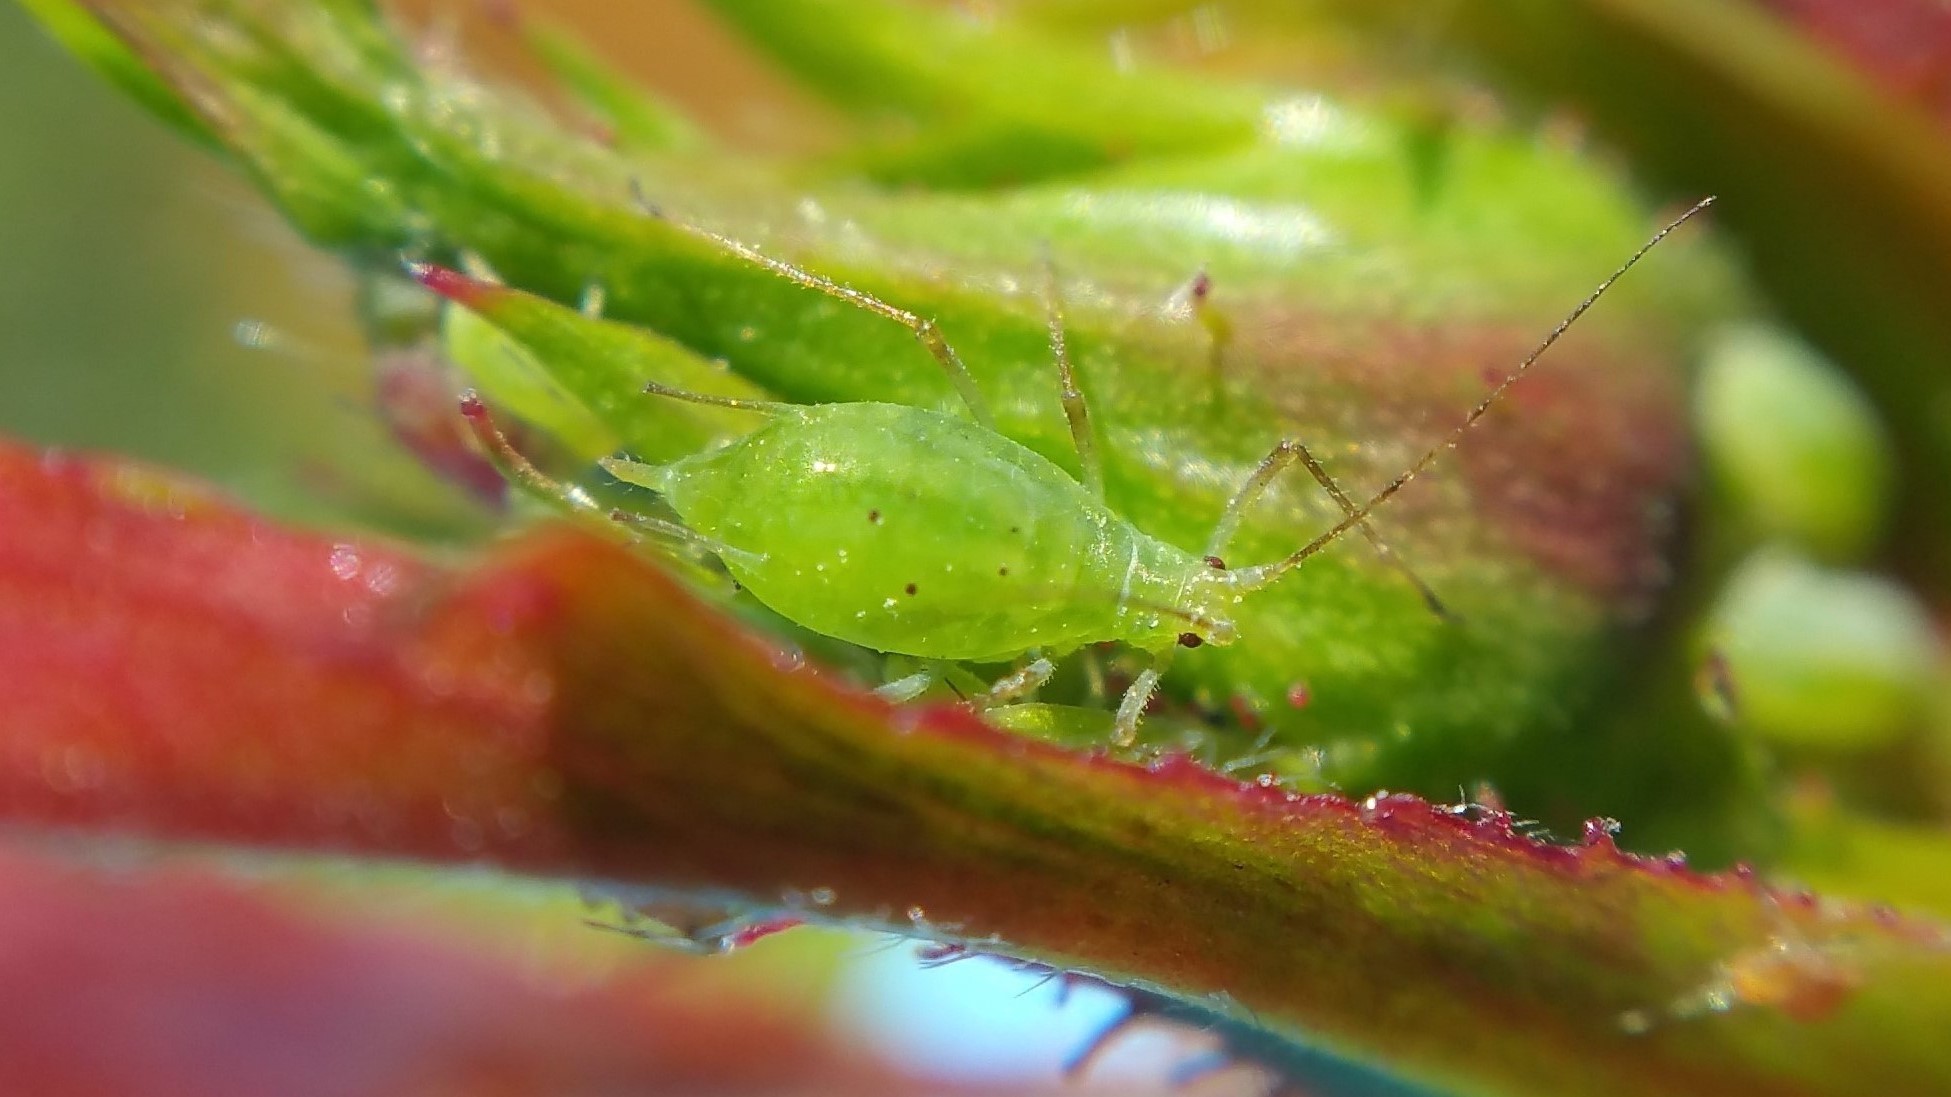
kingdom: Animalia
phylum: Arthropoda
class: Insecta
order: Hemiptera
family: Aphididae
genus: Macrosiphum
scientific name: Macrosiphum euphorbiae
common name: Potato aphid
